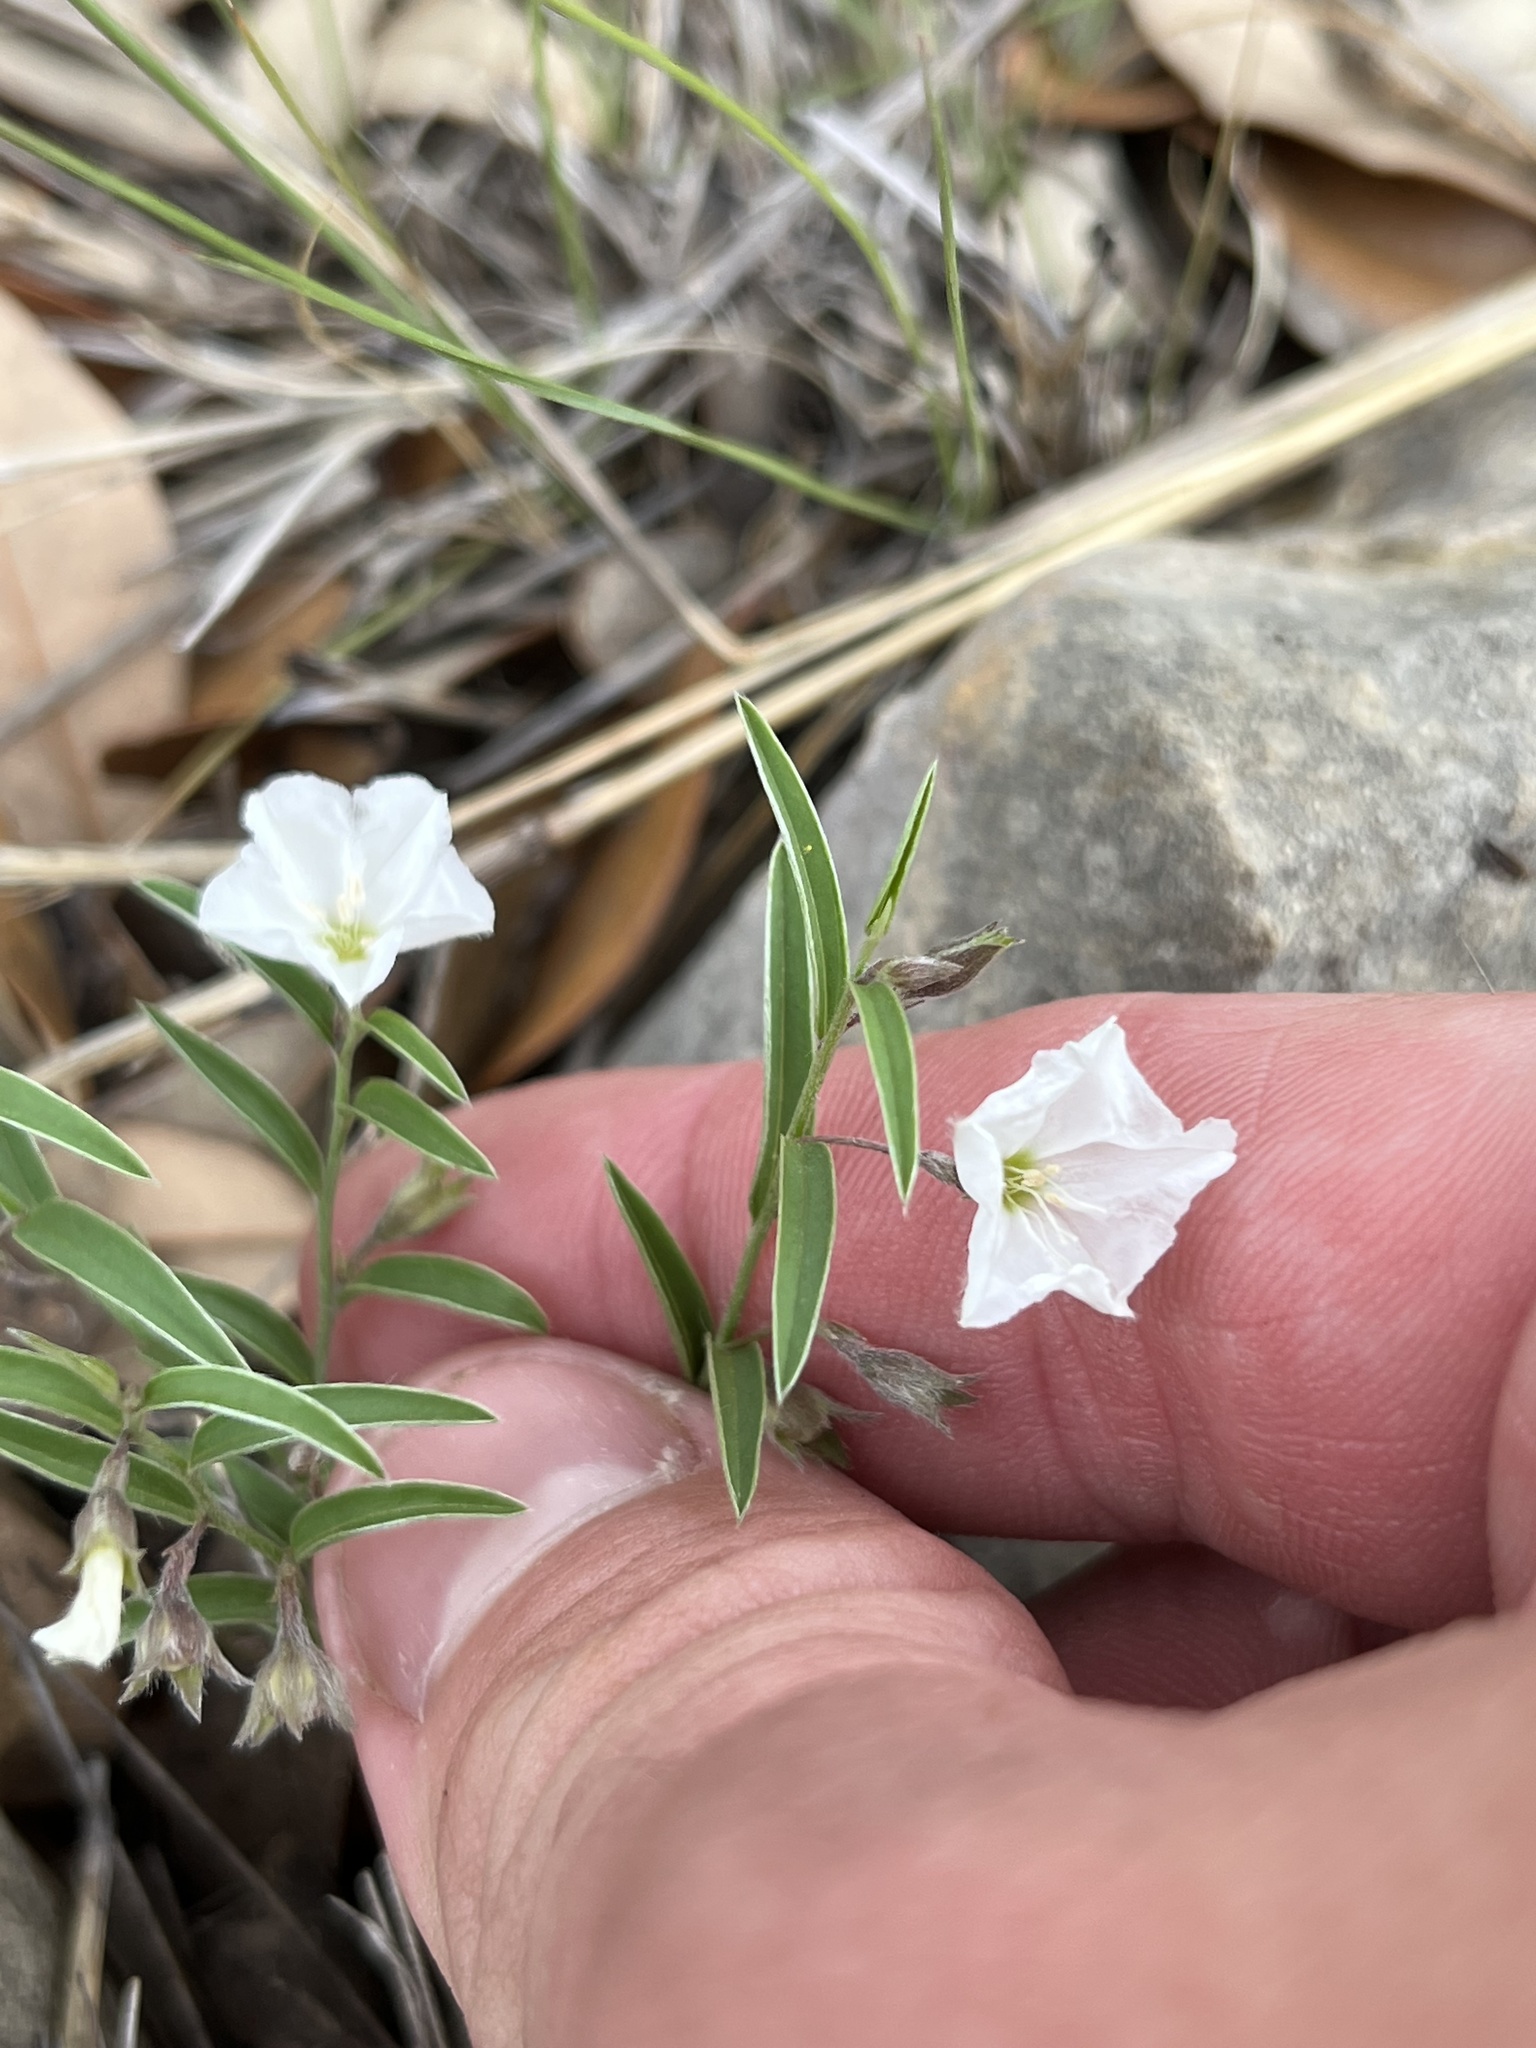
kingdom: Plantae
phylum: Tracheophyta
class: Magnoliopsida
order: Solanales
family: Convolvulaceae
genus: Evolvulus
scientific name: Evolvulus sericeus
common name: Blue dots
